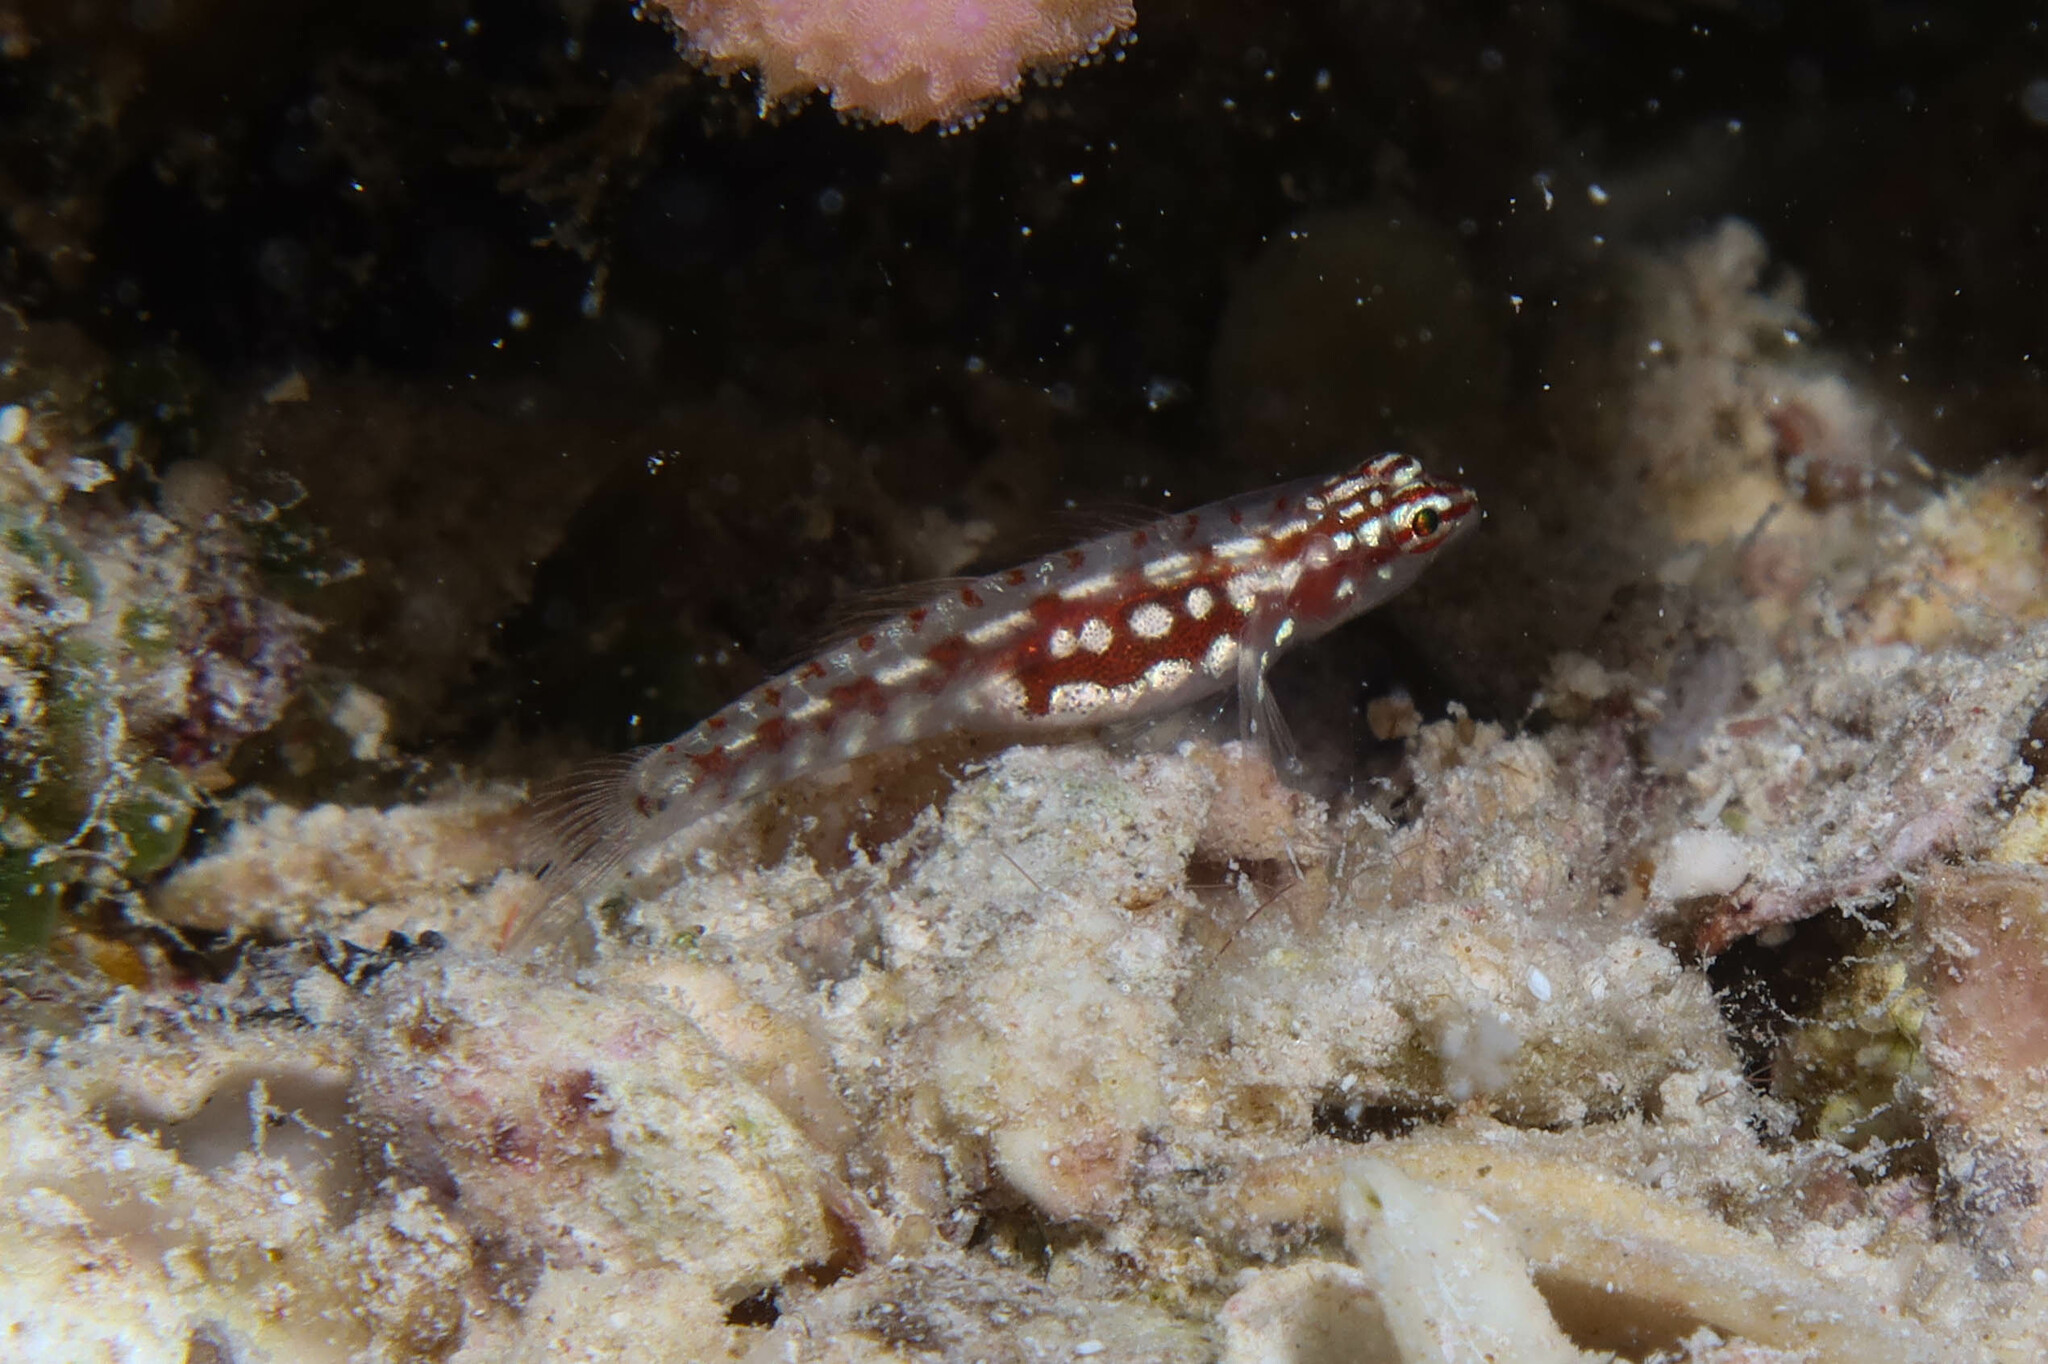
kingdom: Animalia
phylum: Chordata
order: Perciformes
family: Gobiidae
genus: Eviota
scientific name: Eviota marerubrum
